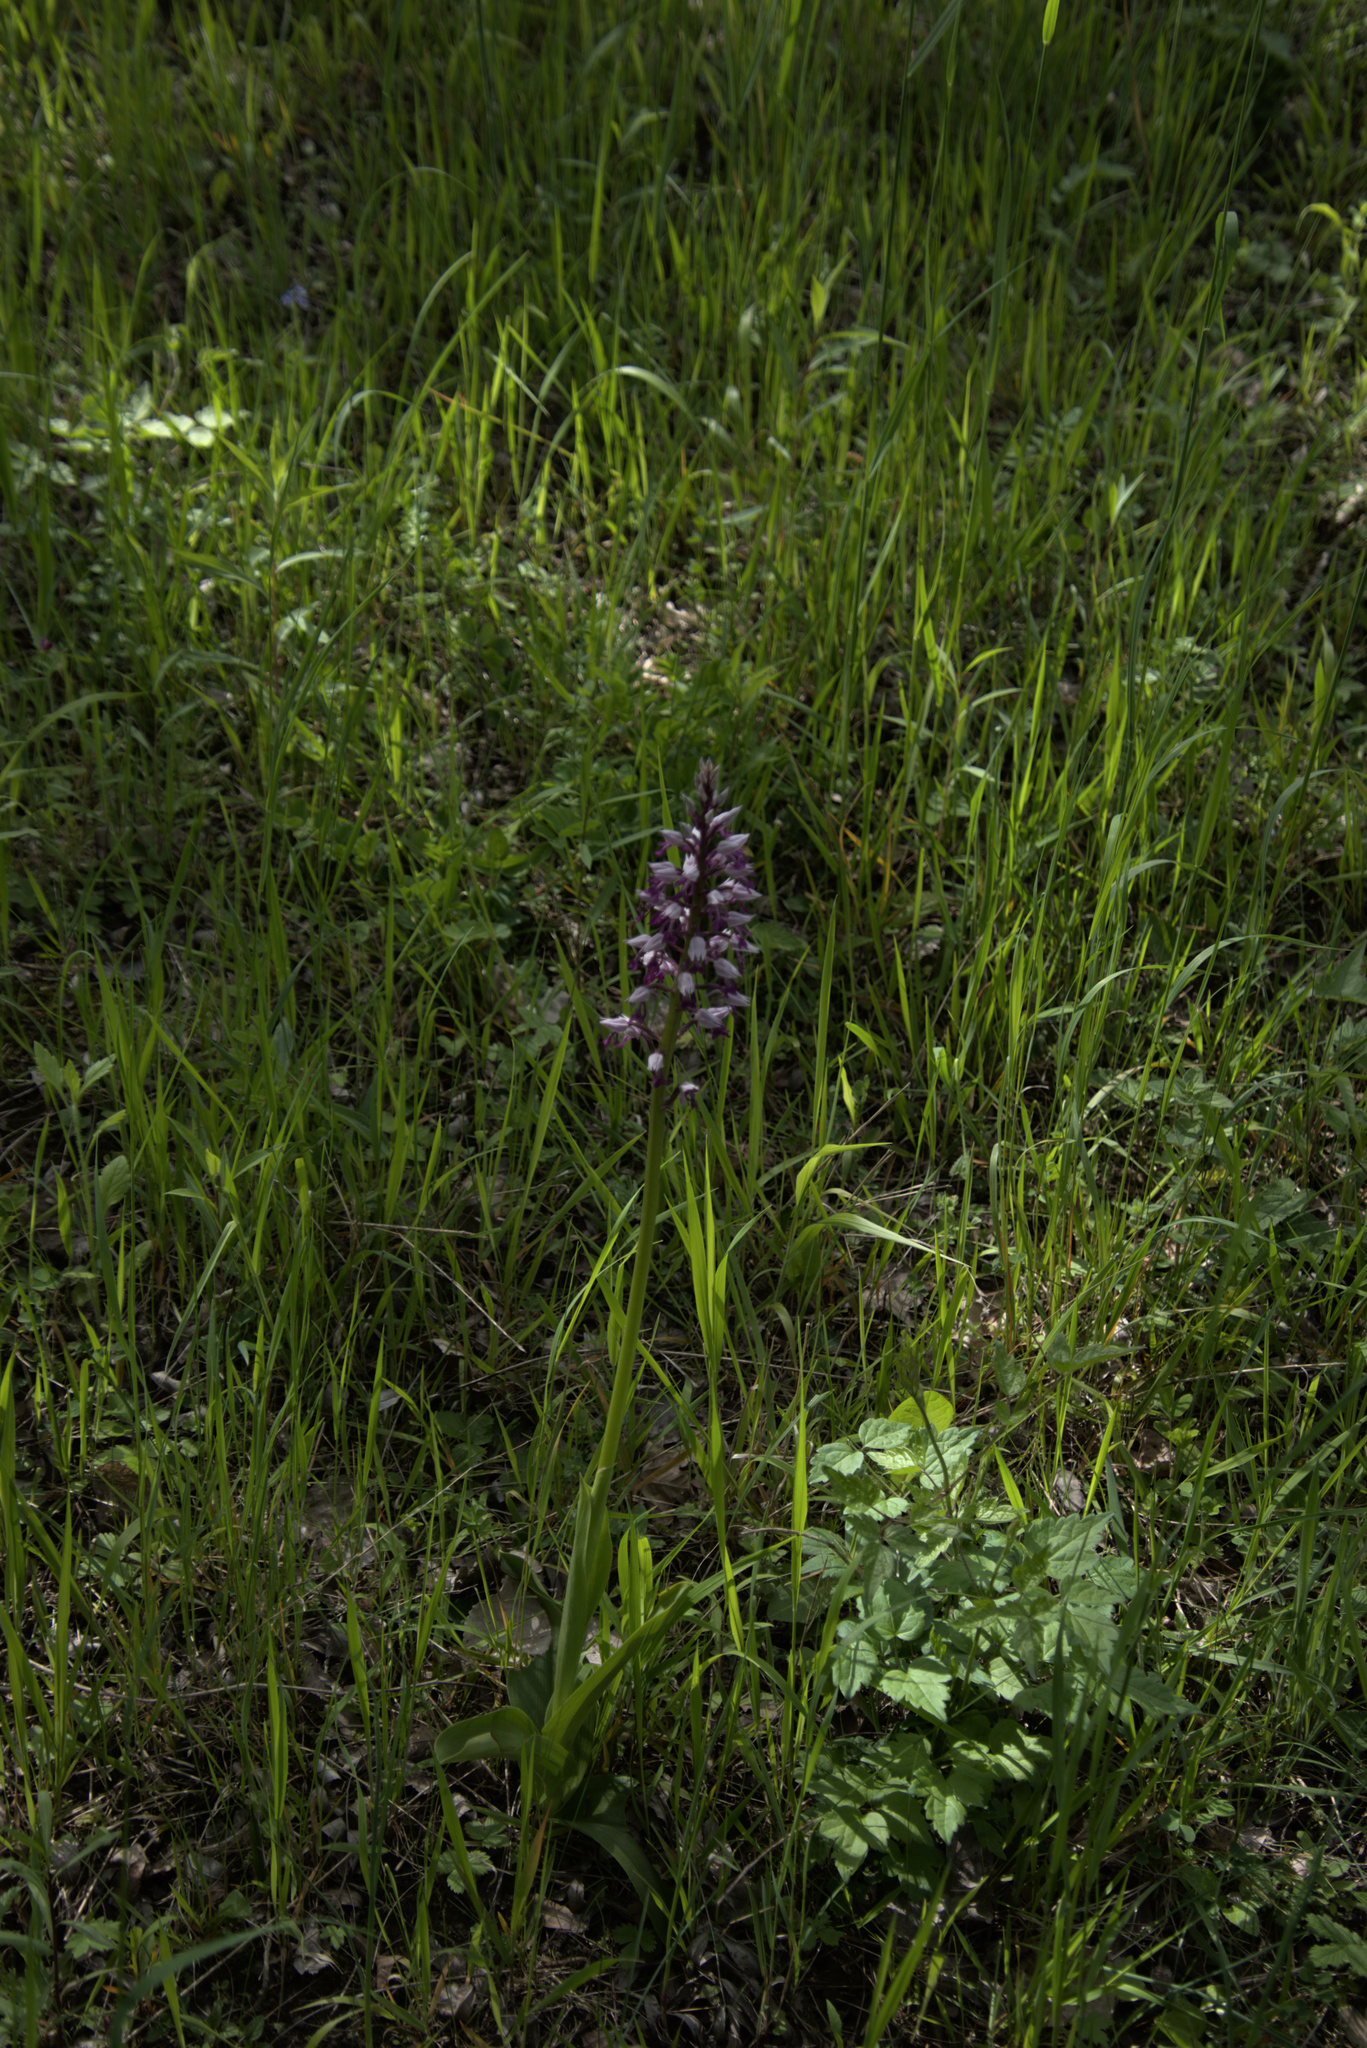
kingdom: Plantae
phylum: Tracheophyta
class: Liliopsida
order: Asparagales
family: Orchidaceae
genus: Orchis
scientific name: Orchis militaris
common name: Military orchid
